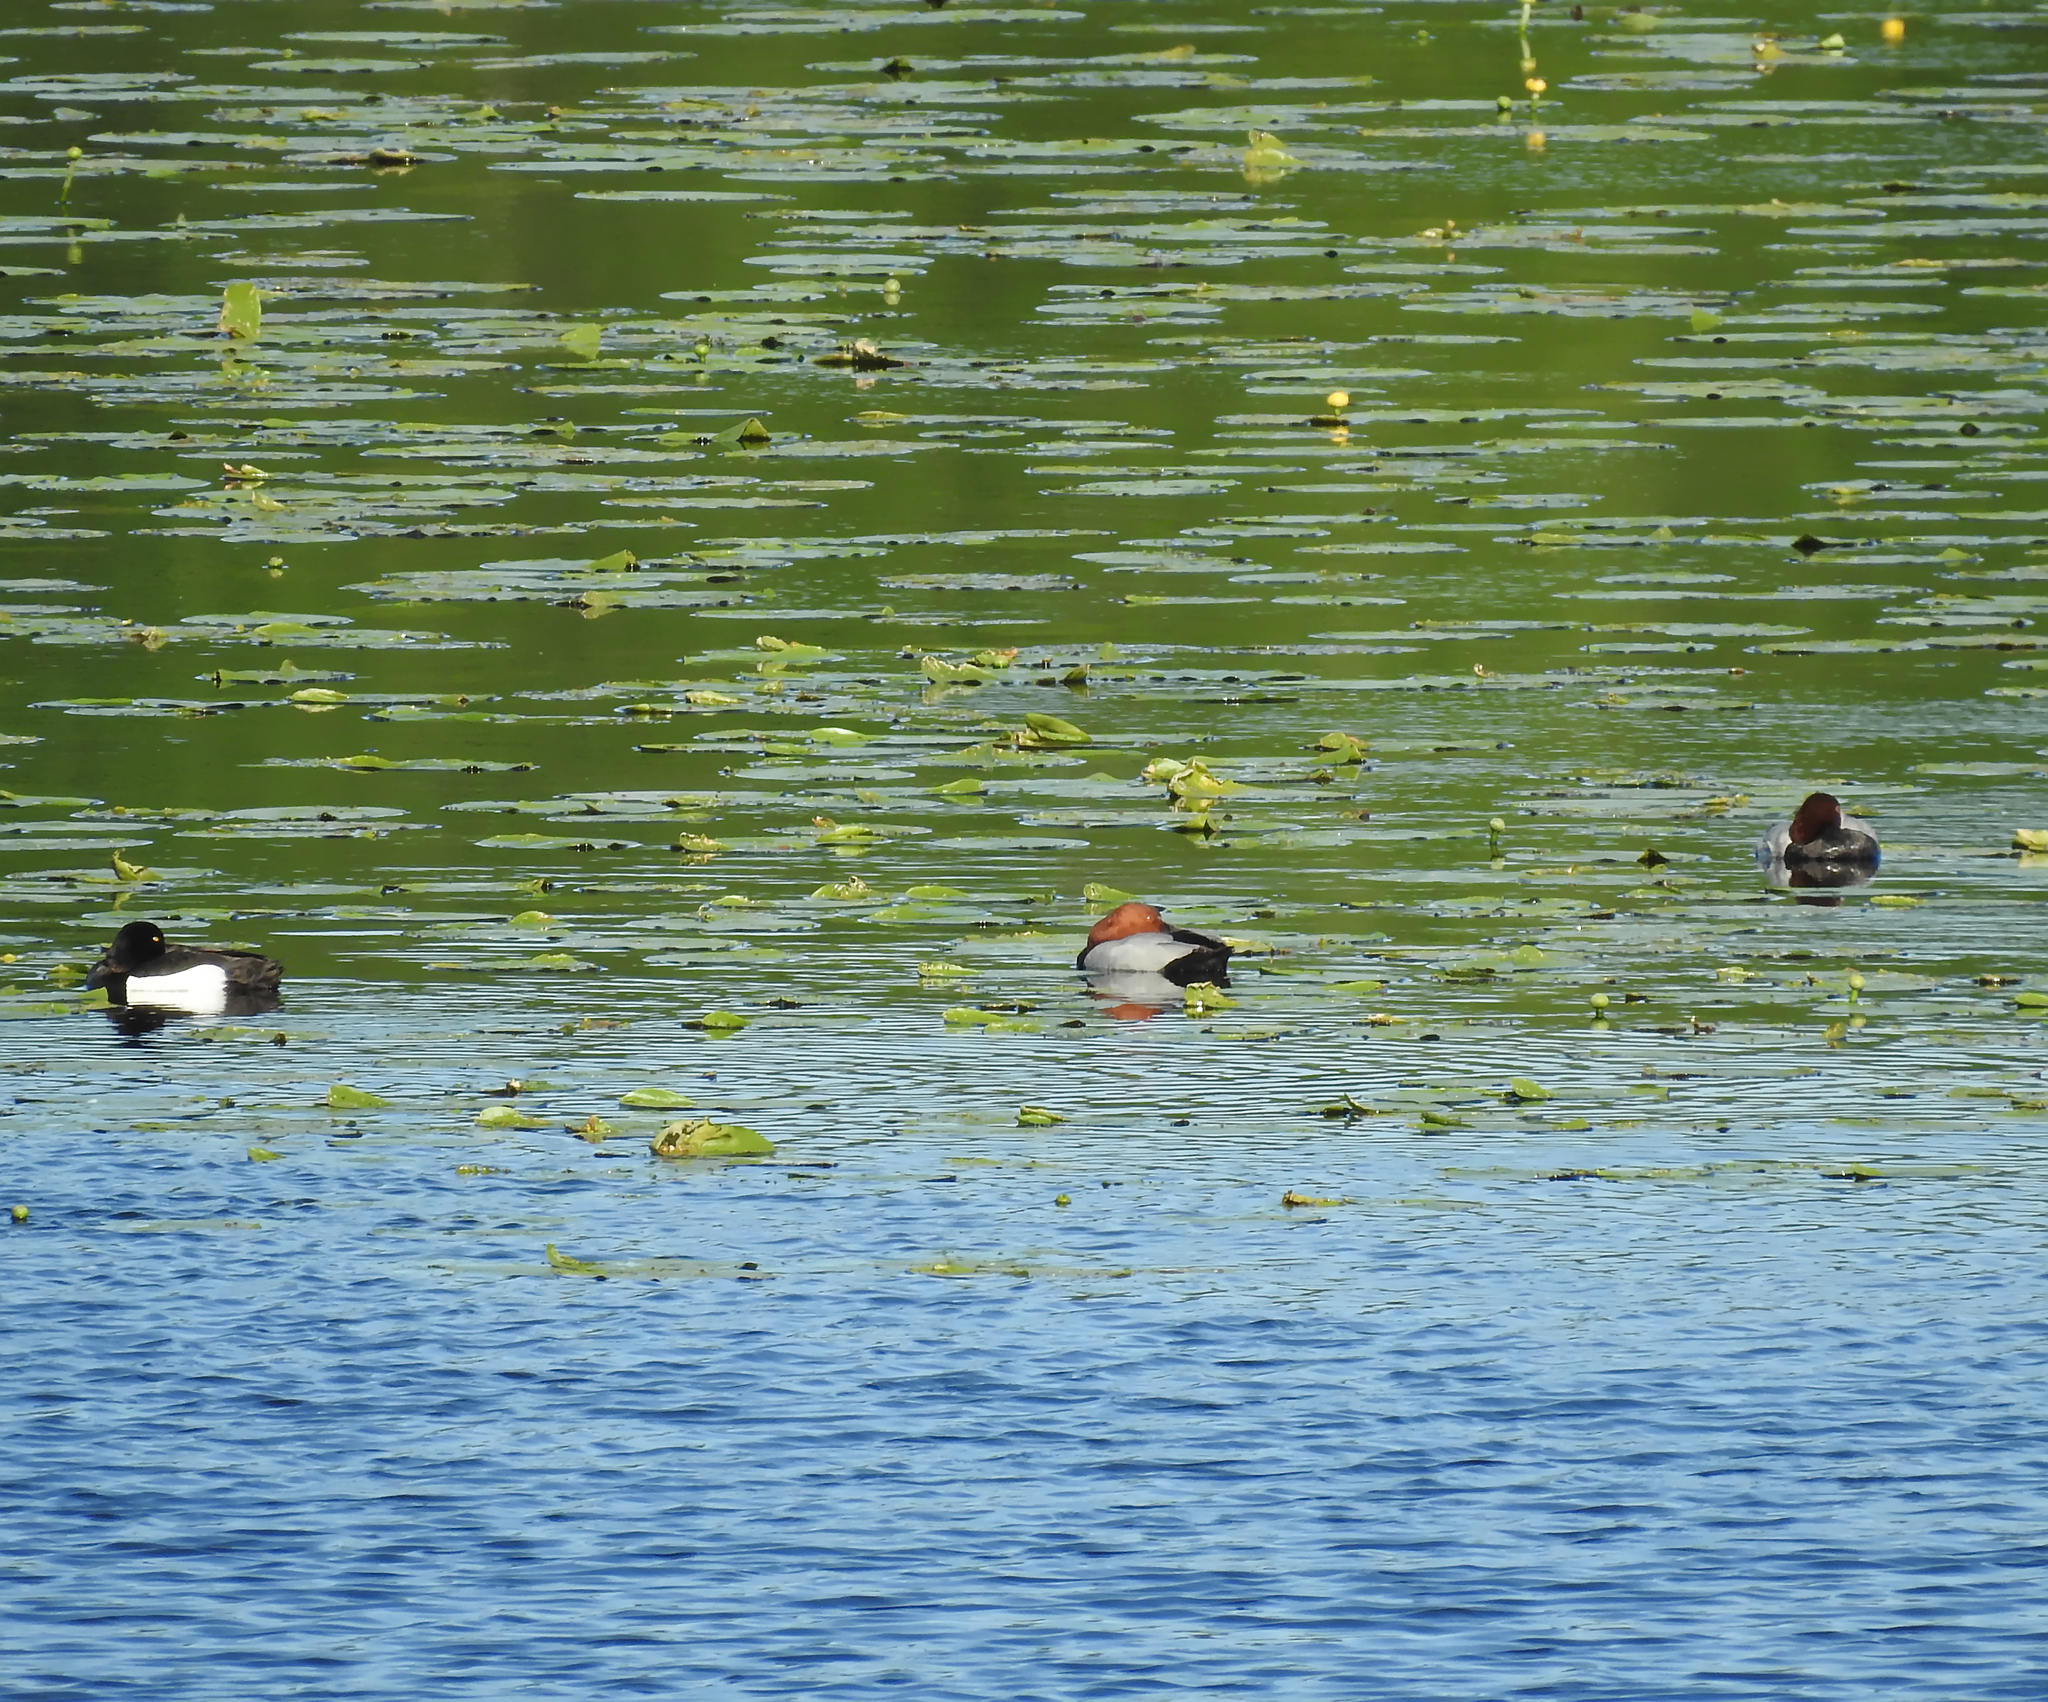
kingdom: Animalia
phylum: Chordata
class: Aves
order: Anseriformes
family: Anatidae
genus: Aythya
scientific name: Aythya fuligula
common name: Tufted duck
